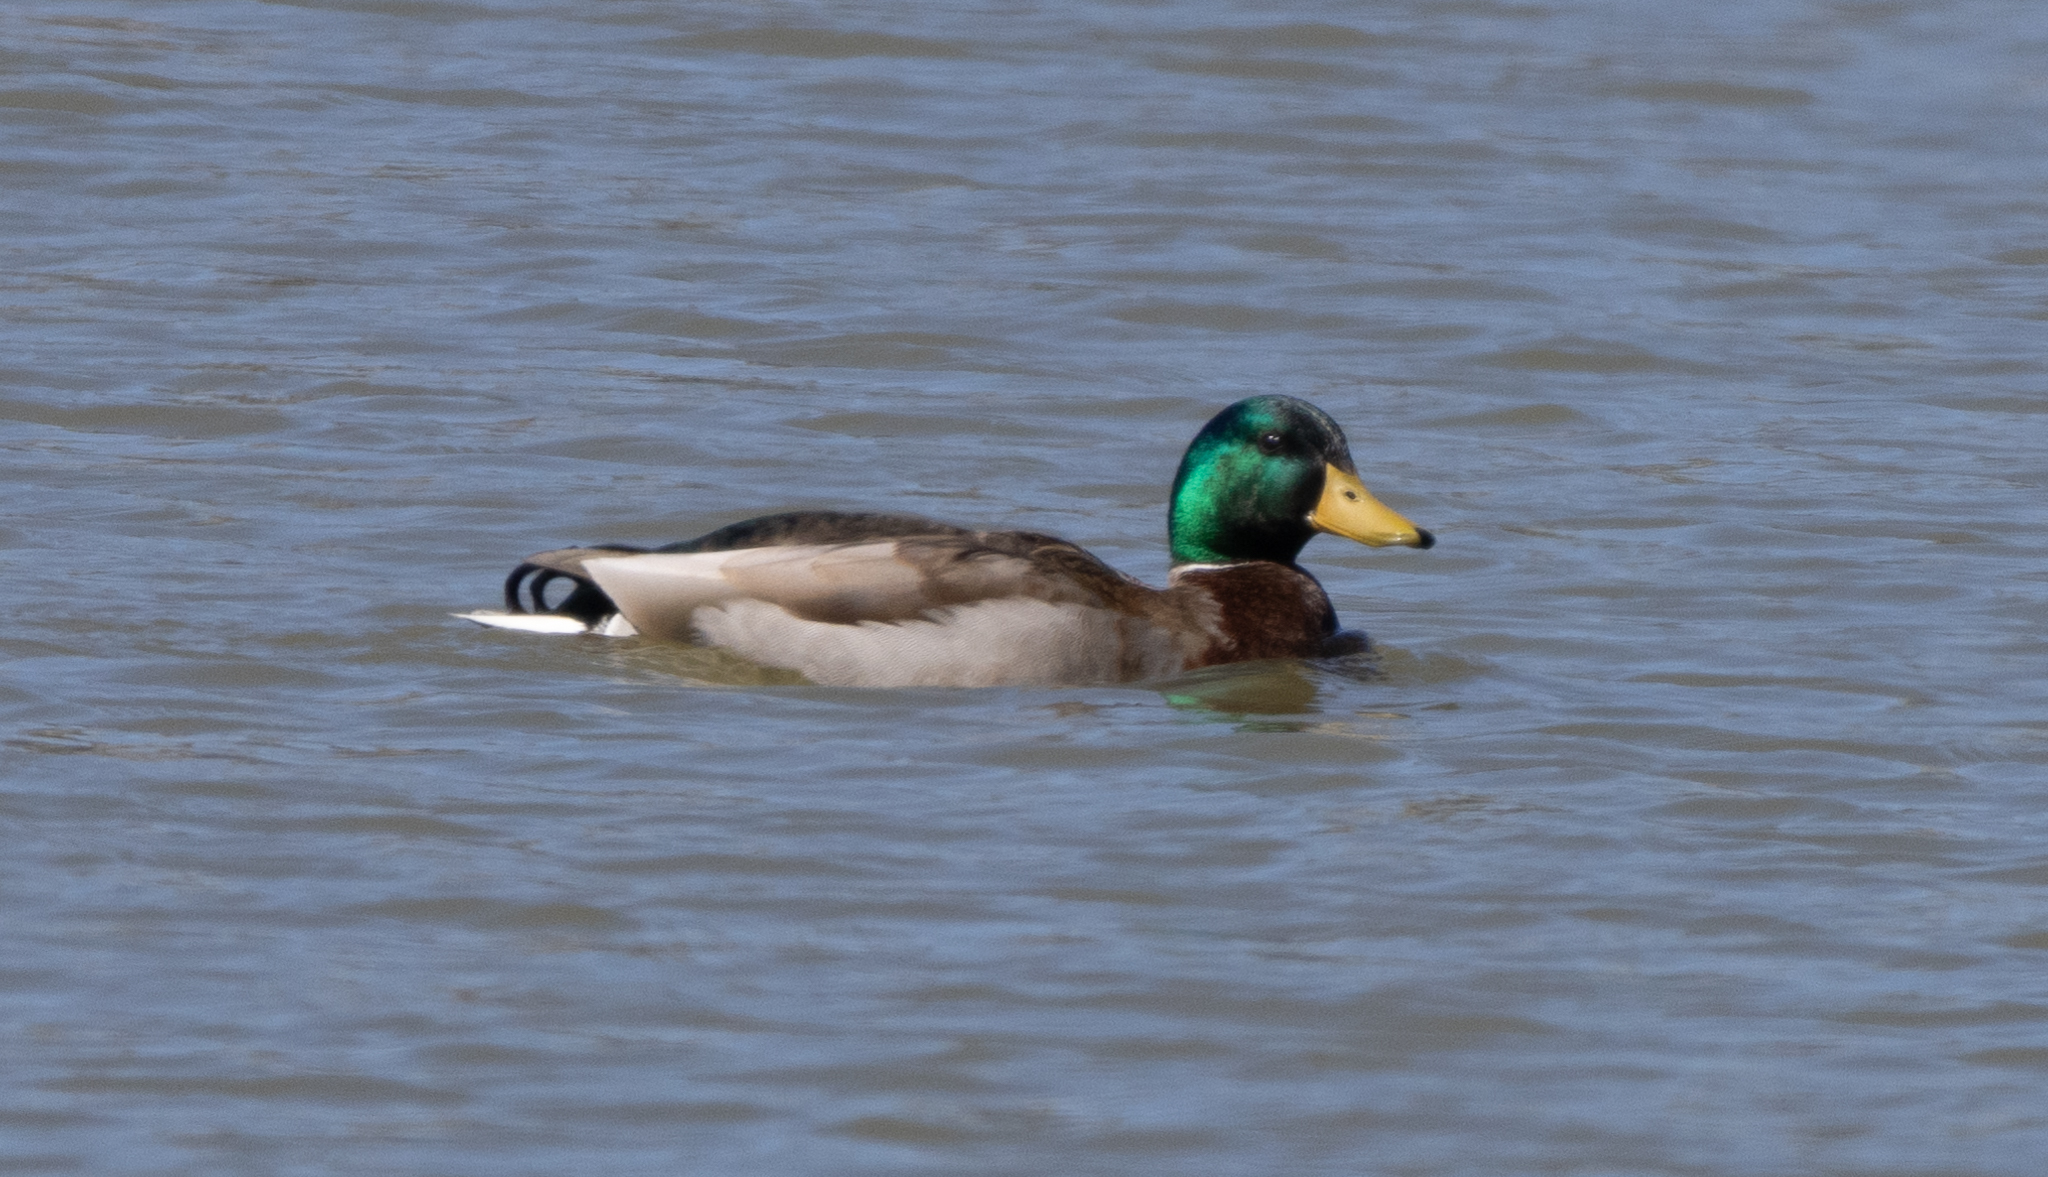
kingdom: Animalia
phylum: Chordata
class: Aves
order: Anseriformes
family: Anatidae
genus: Anas
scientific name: Anas platyrhynchos
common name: Mallard
